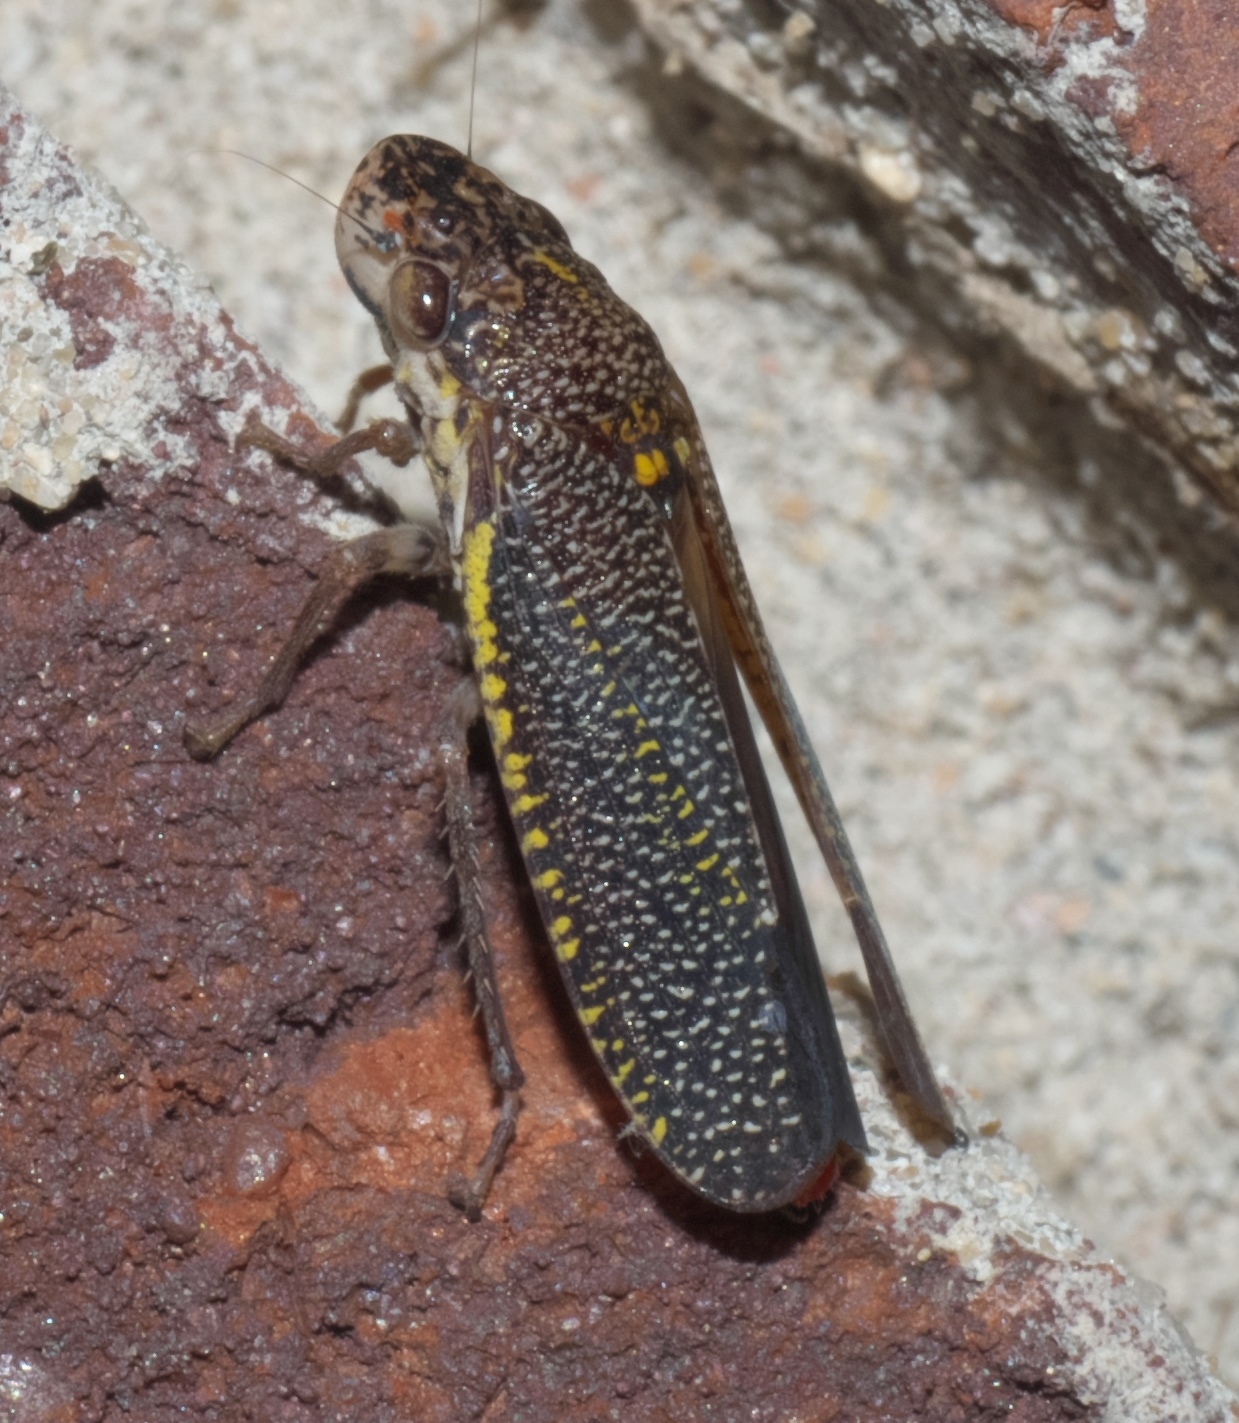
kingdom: Animalia
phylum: Arthropoda
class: Insecta
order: Hemiptera
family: Cicadellidae
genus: Paraulacizes
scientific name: Paraulacizes irrorata
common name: Speckled sharpshooter
